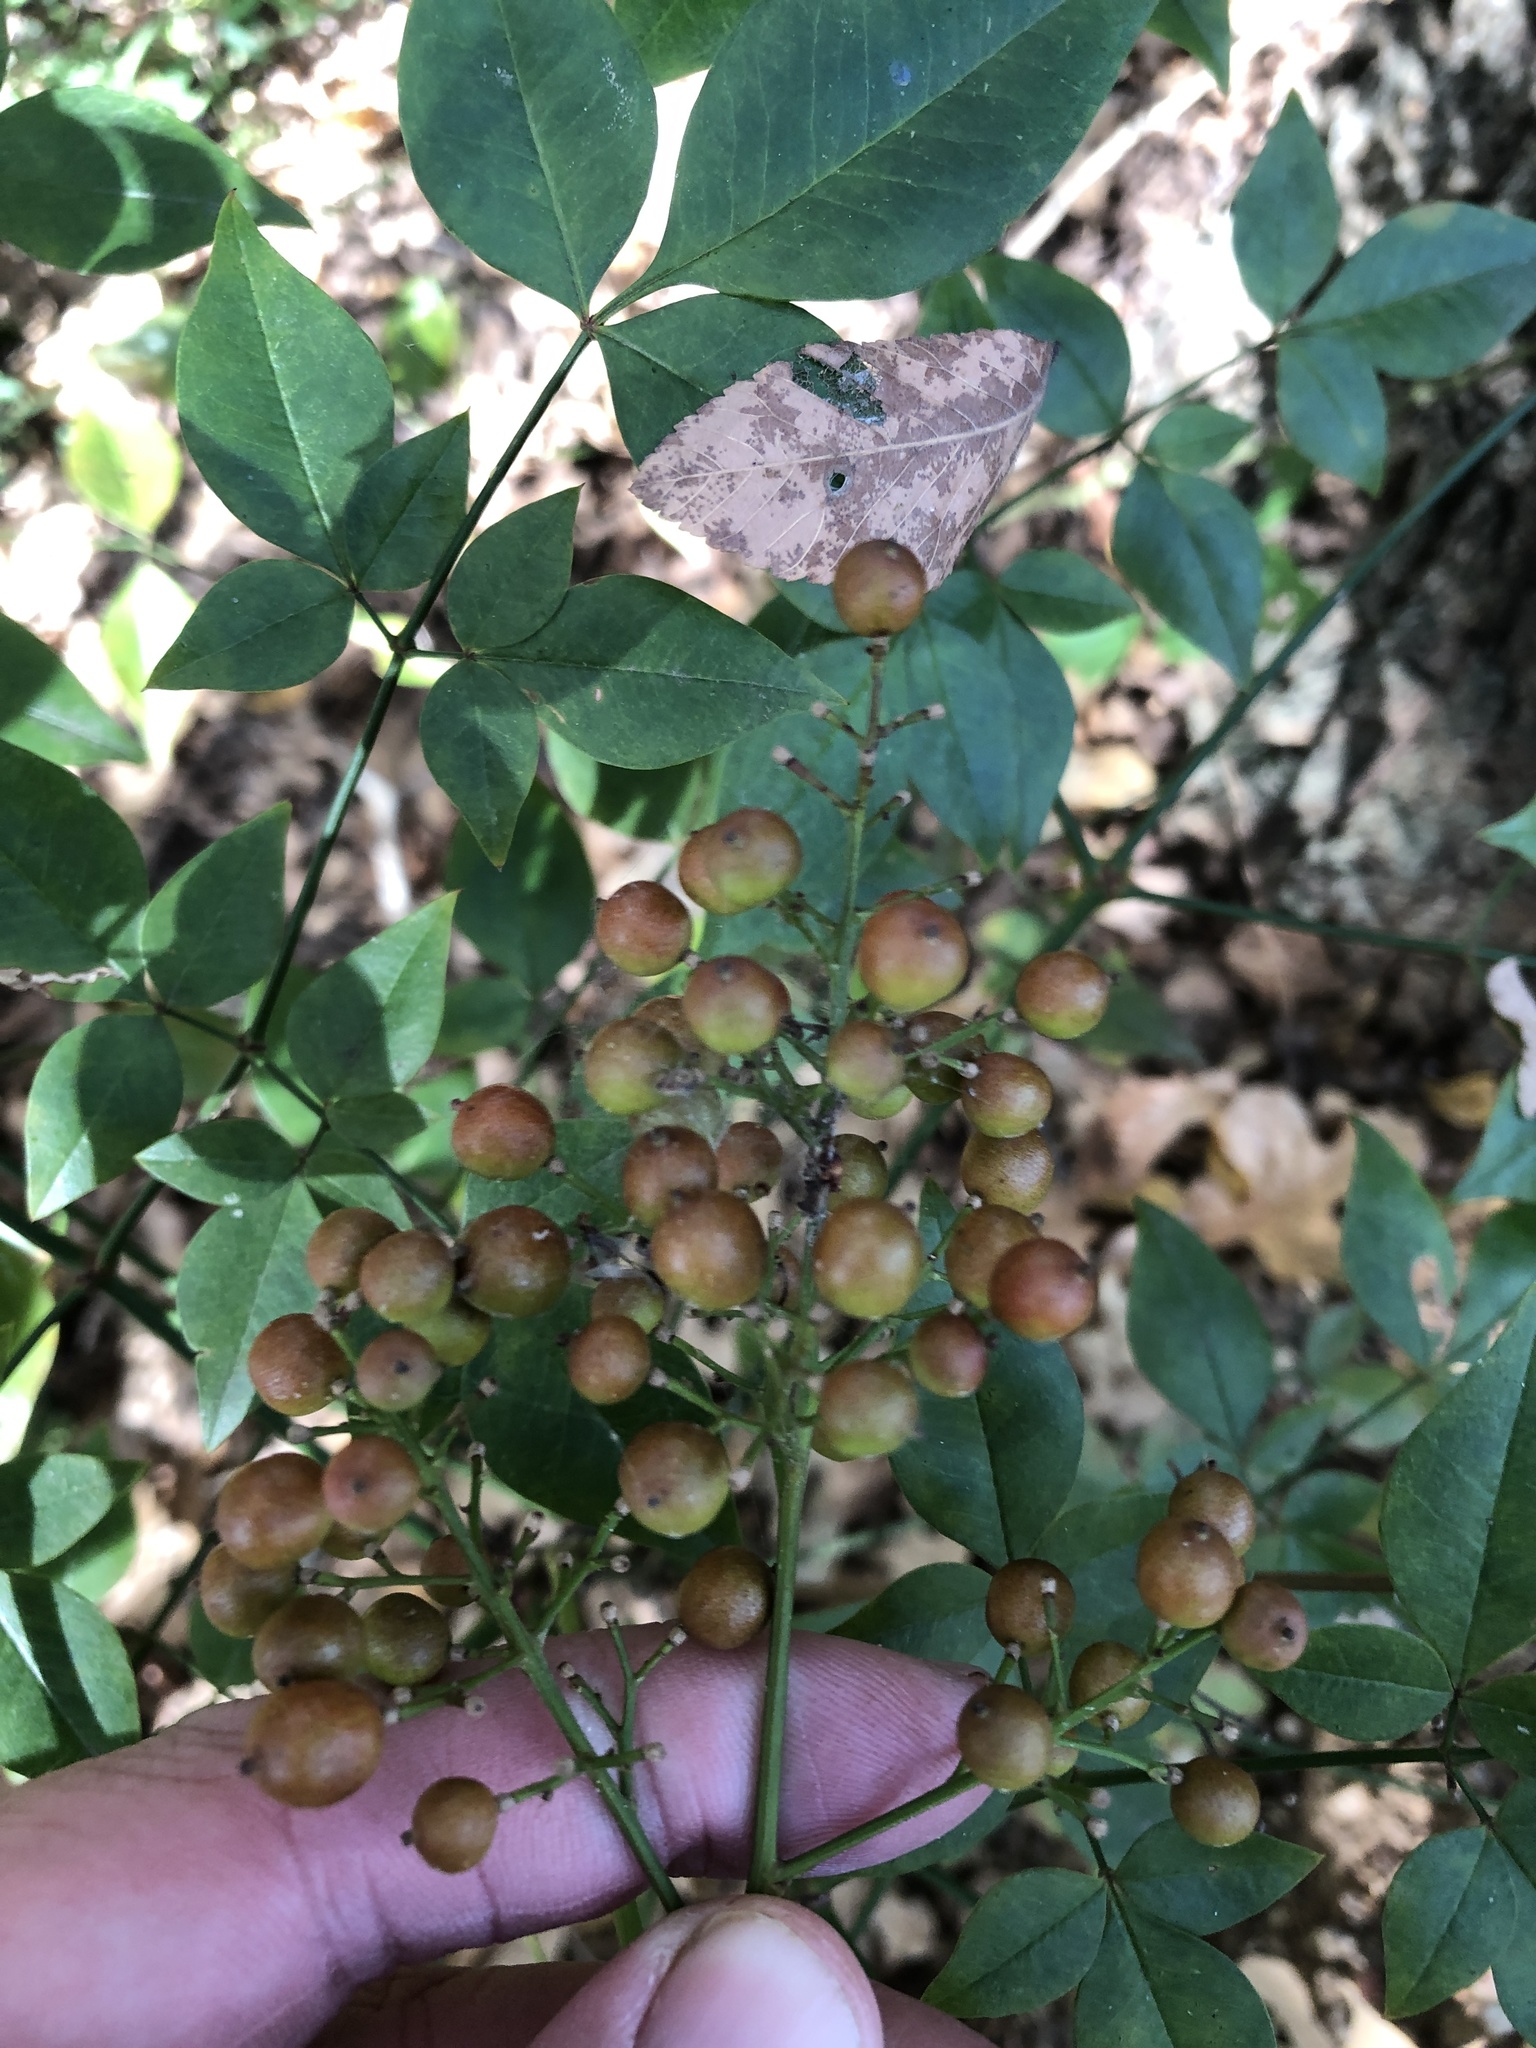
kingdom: Plantae
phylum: Tracheophyta
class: Magnoliopsida
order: Ranunculales
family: Berberidaceae
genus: Nandina
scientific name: Nandina domestica
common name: Sacred bamboo
